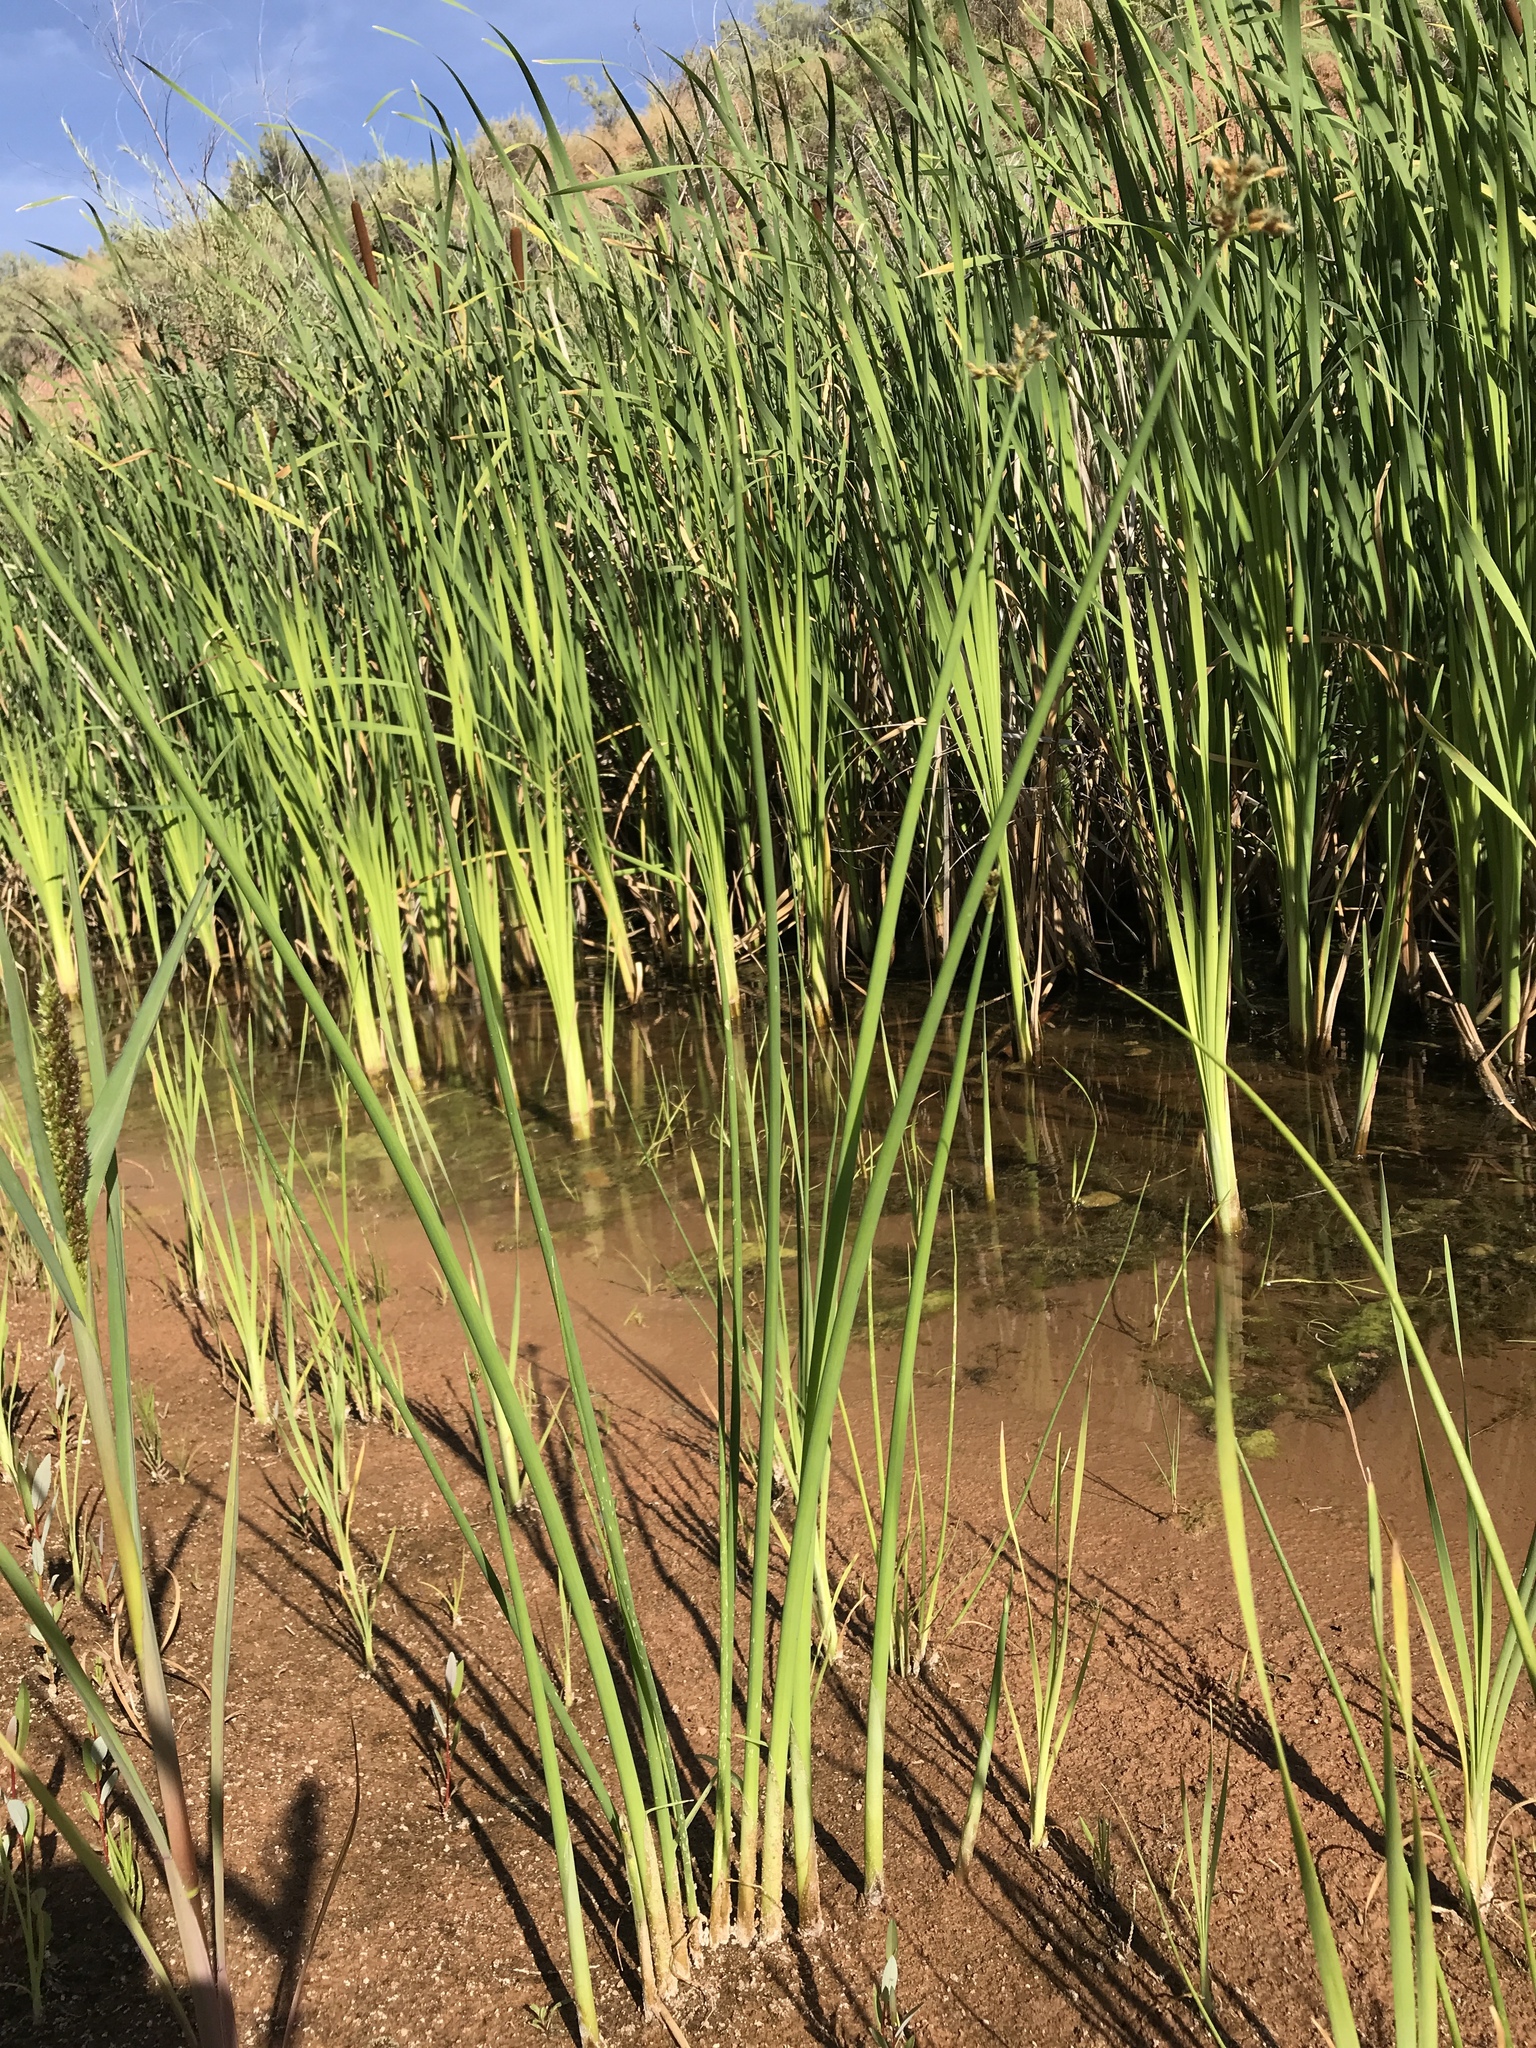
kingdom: Plantae
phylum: Tracheophyta
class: Liliopsida
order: Poales
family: Cyperaceae
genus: Schoenoplectus
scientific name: Schoenoplectus acutus
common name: Hardstem bulrush
